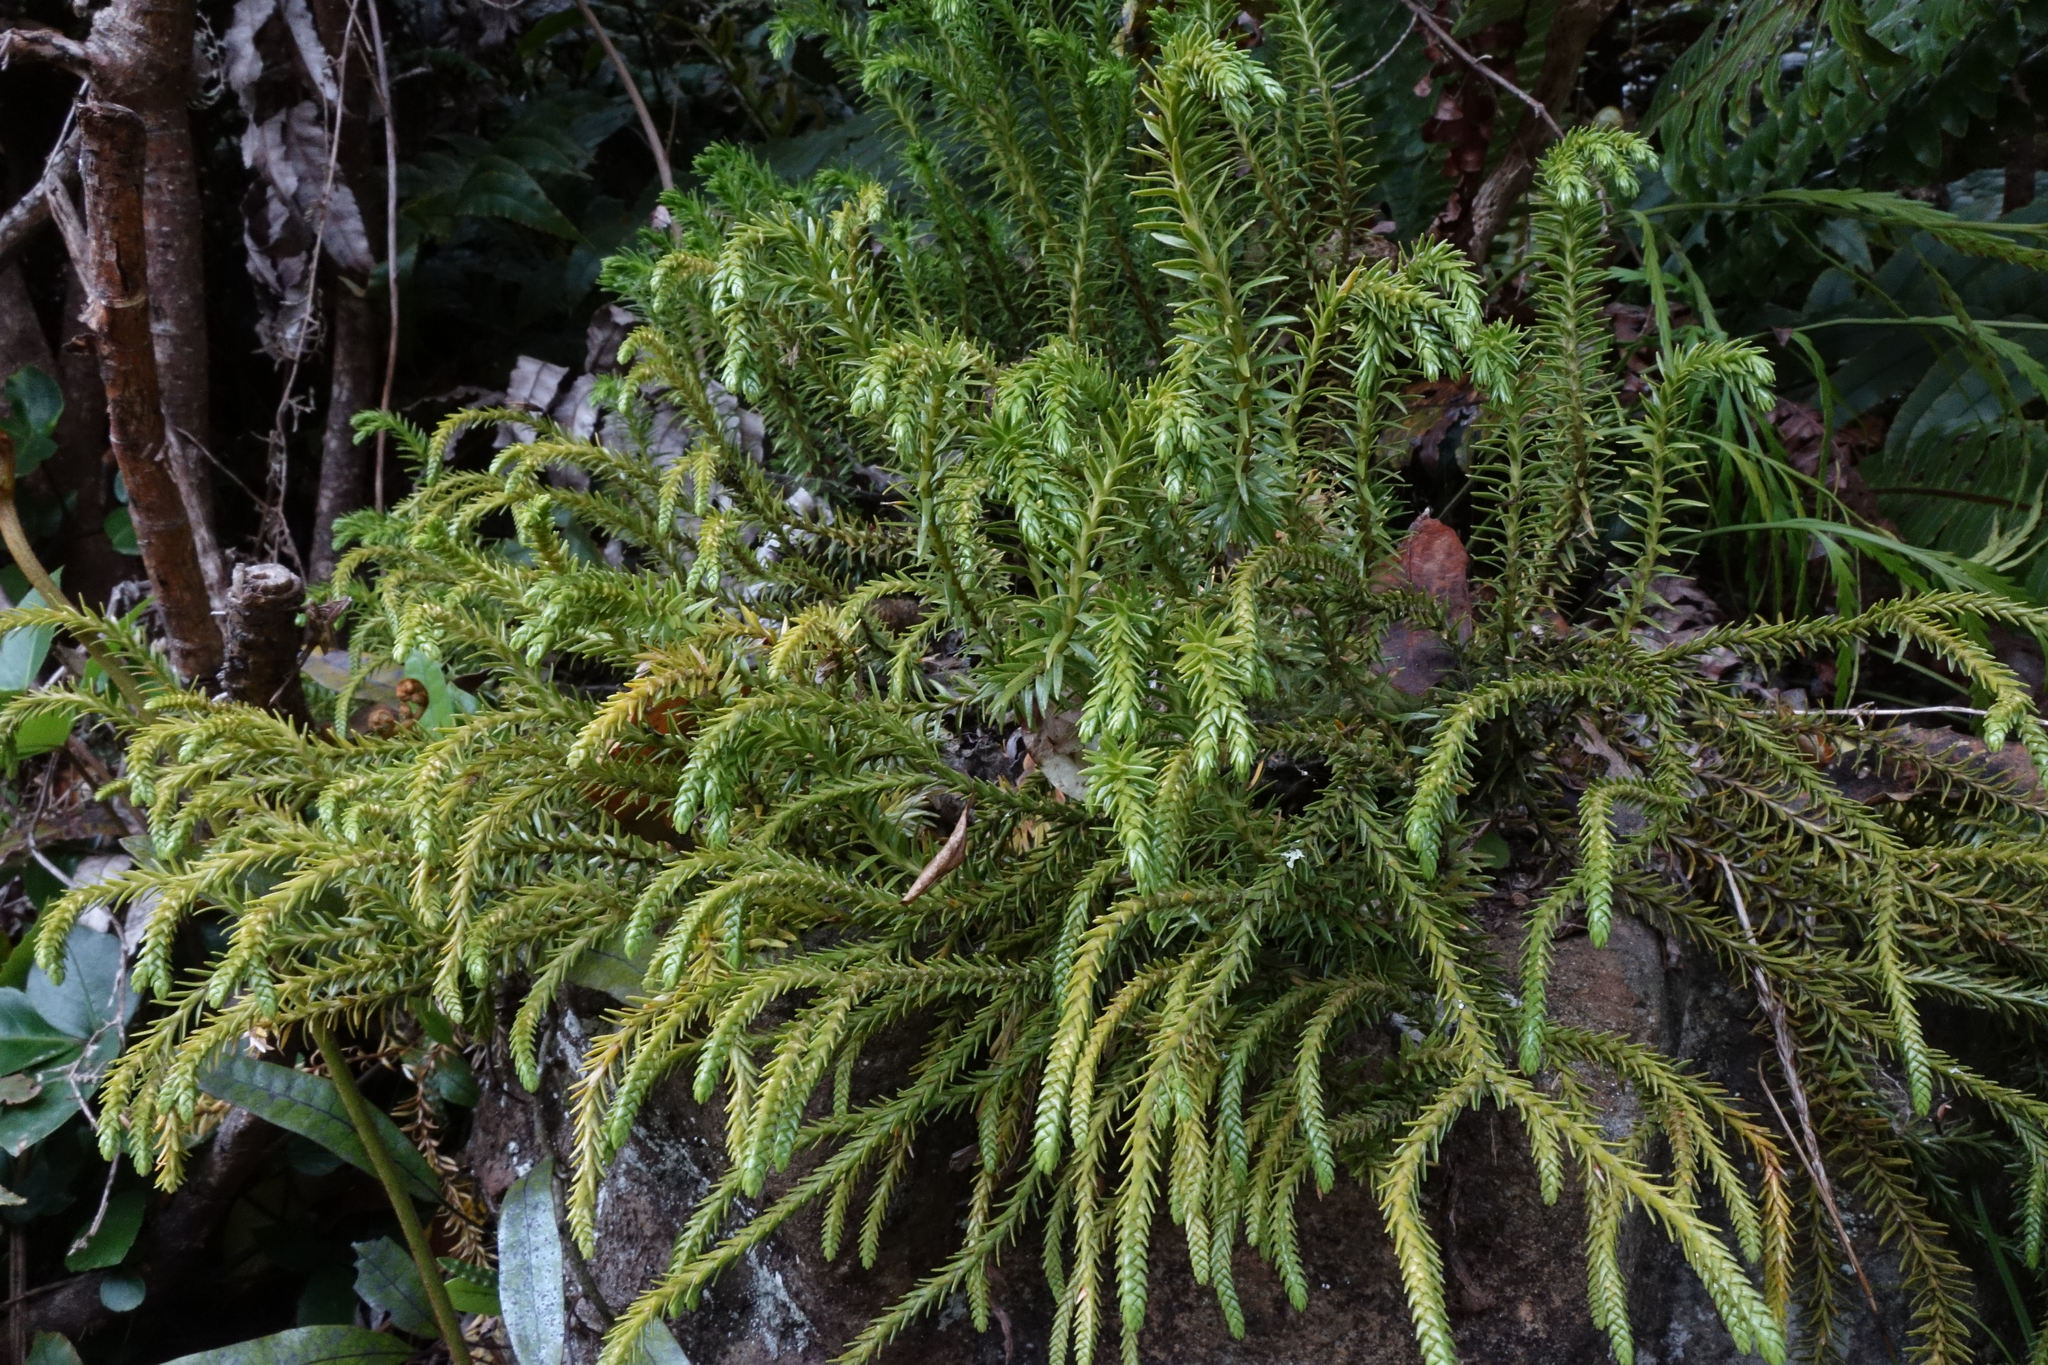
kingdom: Plantae
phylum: Tracheophyta
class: Lycopodiopsida
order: Lycopodiales
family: Lycopodiaceae
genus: Phlegmariurus
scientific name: Phlegmariurus varius
